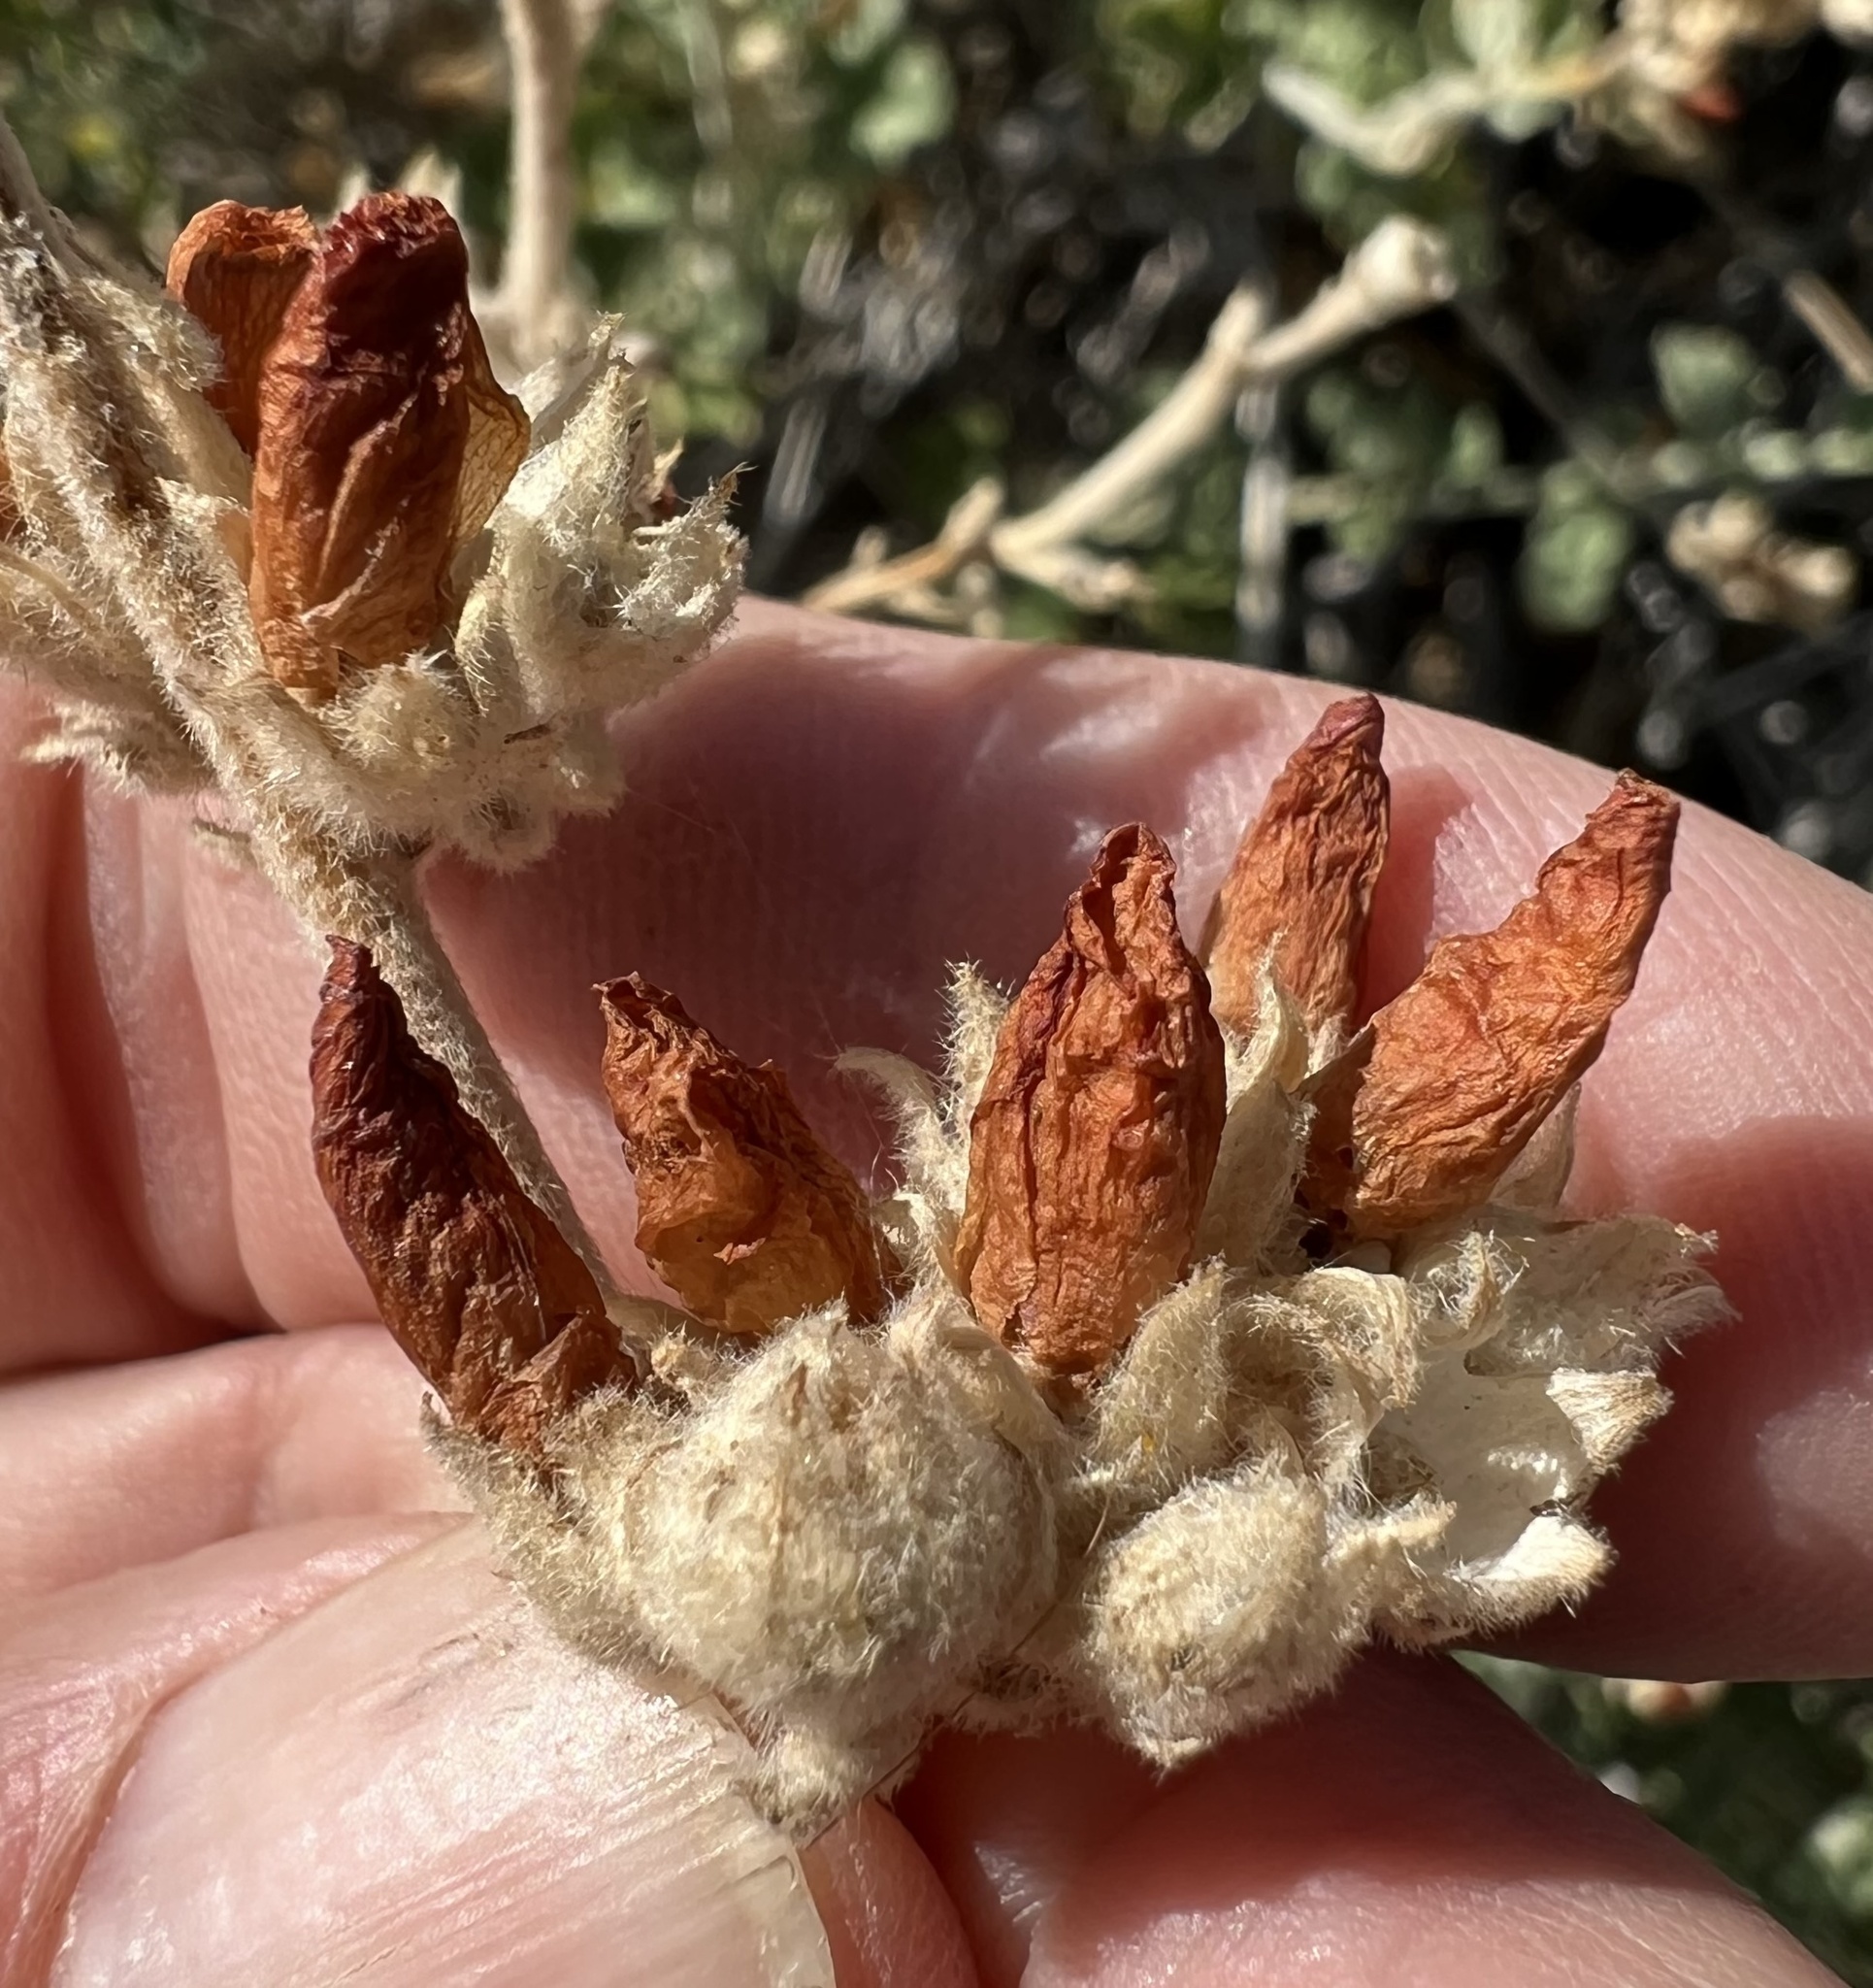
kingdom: Plantae
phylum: Tracheophyta
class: Magnoliopsida
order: Malvales
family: Malvaceae
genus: Malacothamnus
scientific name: Malacothamnus fremontii
